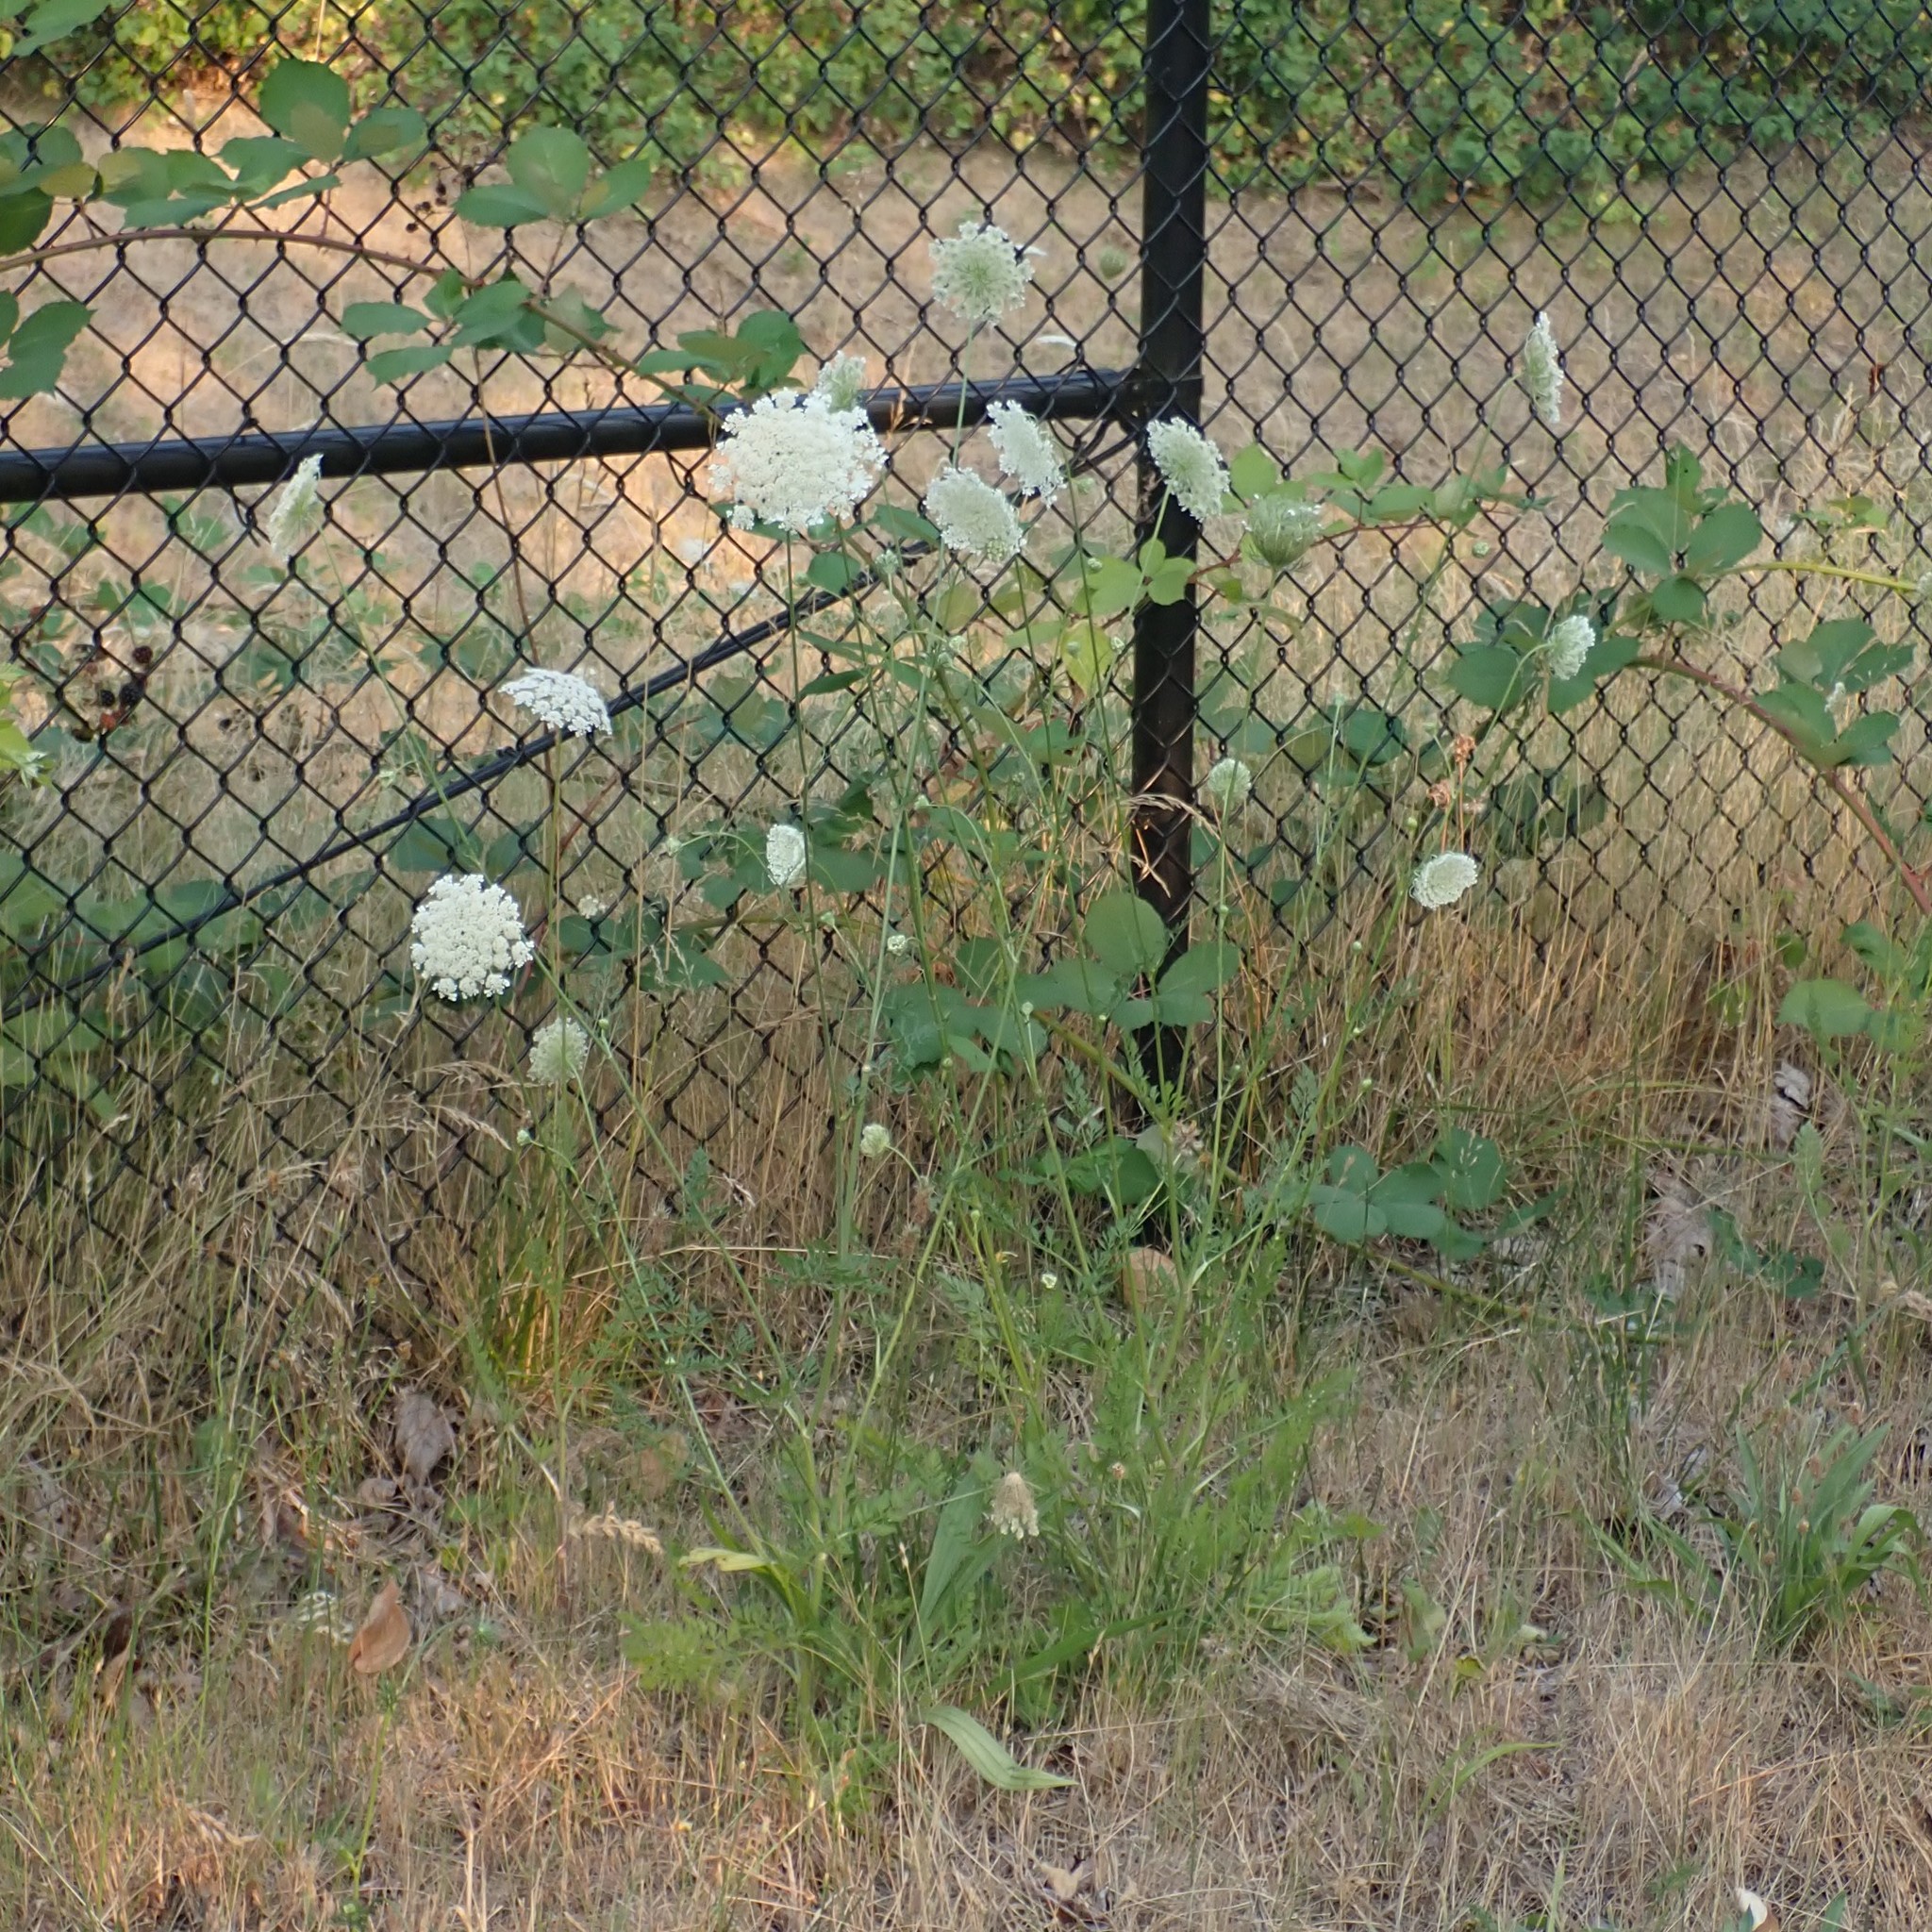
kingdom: Plantae
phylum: Tracheophyta
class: Magnoliopsida
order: Apiales
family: Apiaceae
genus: Daucus
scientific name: Daucus carota
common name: Wild carrot
